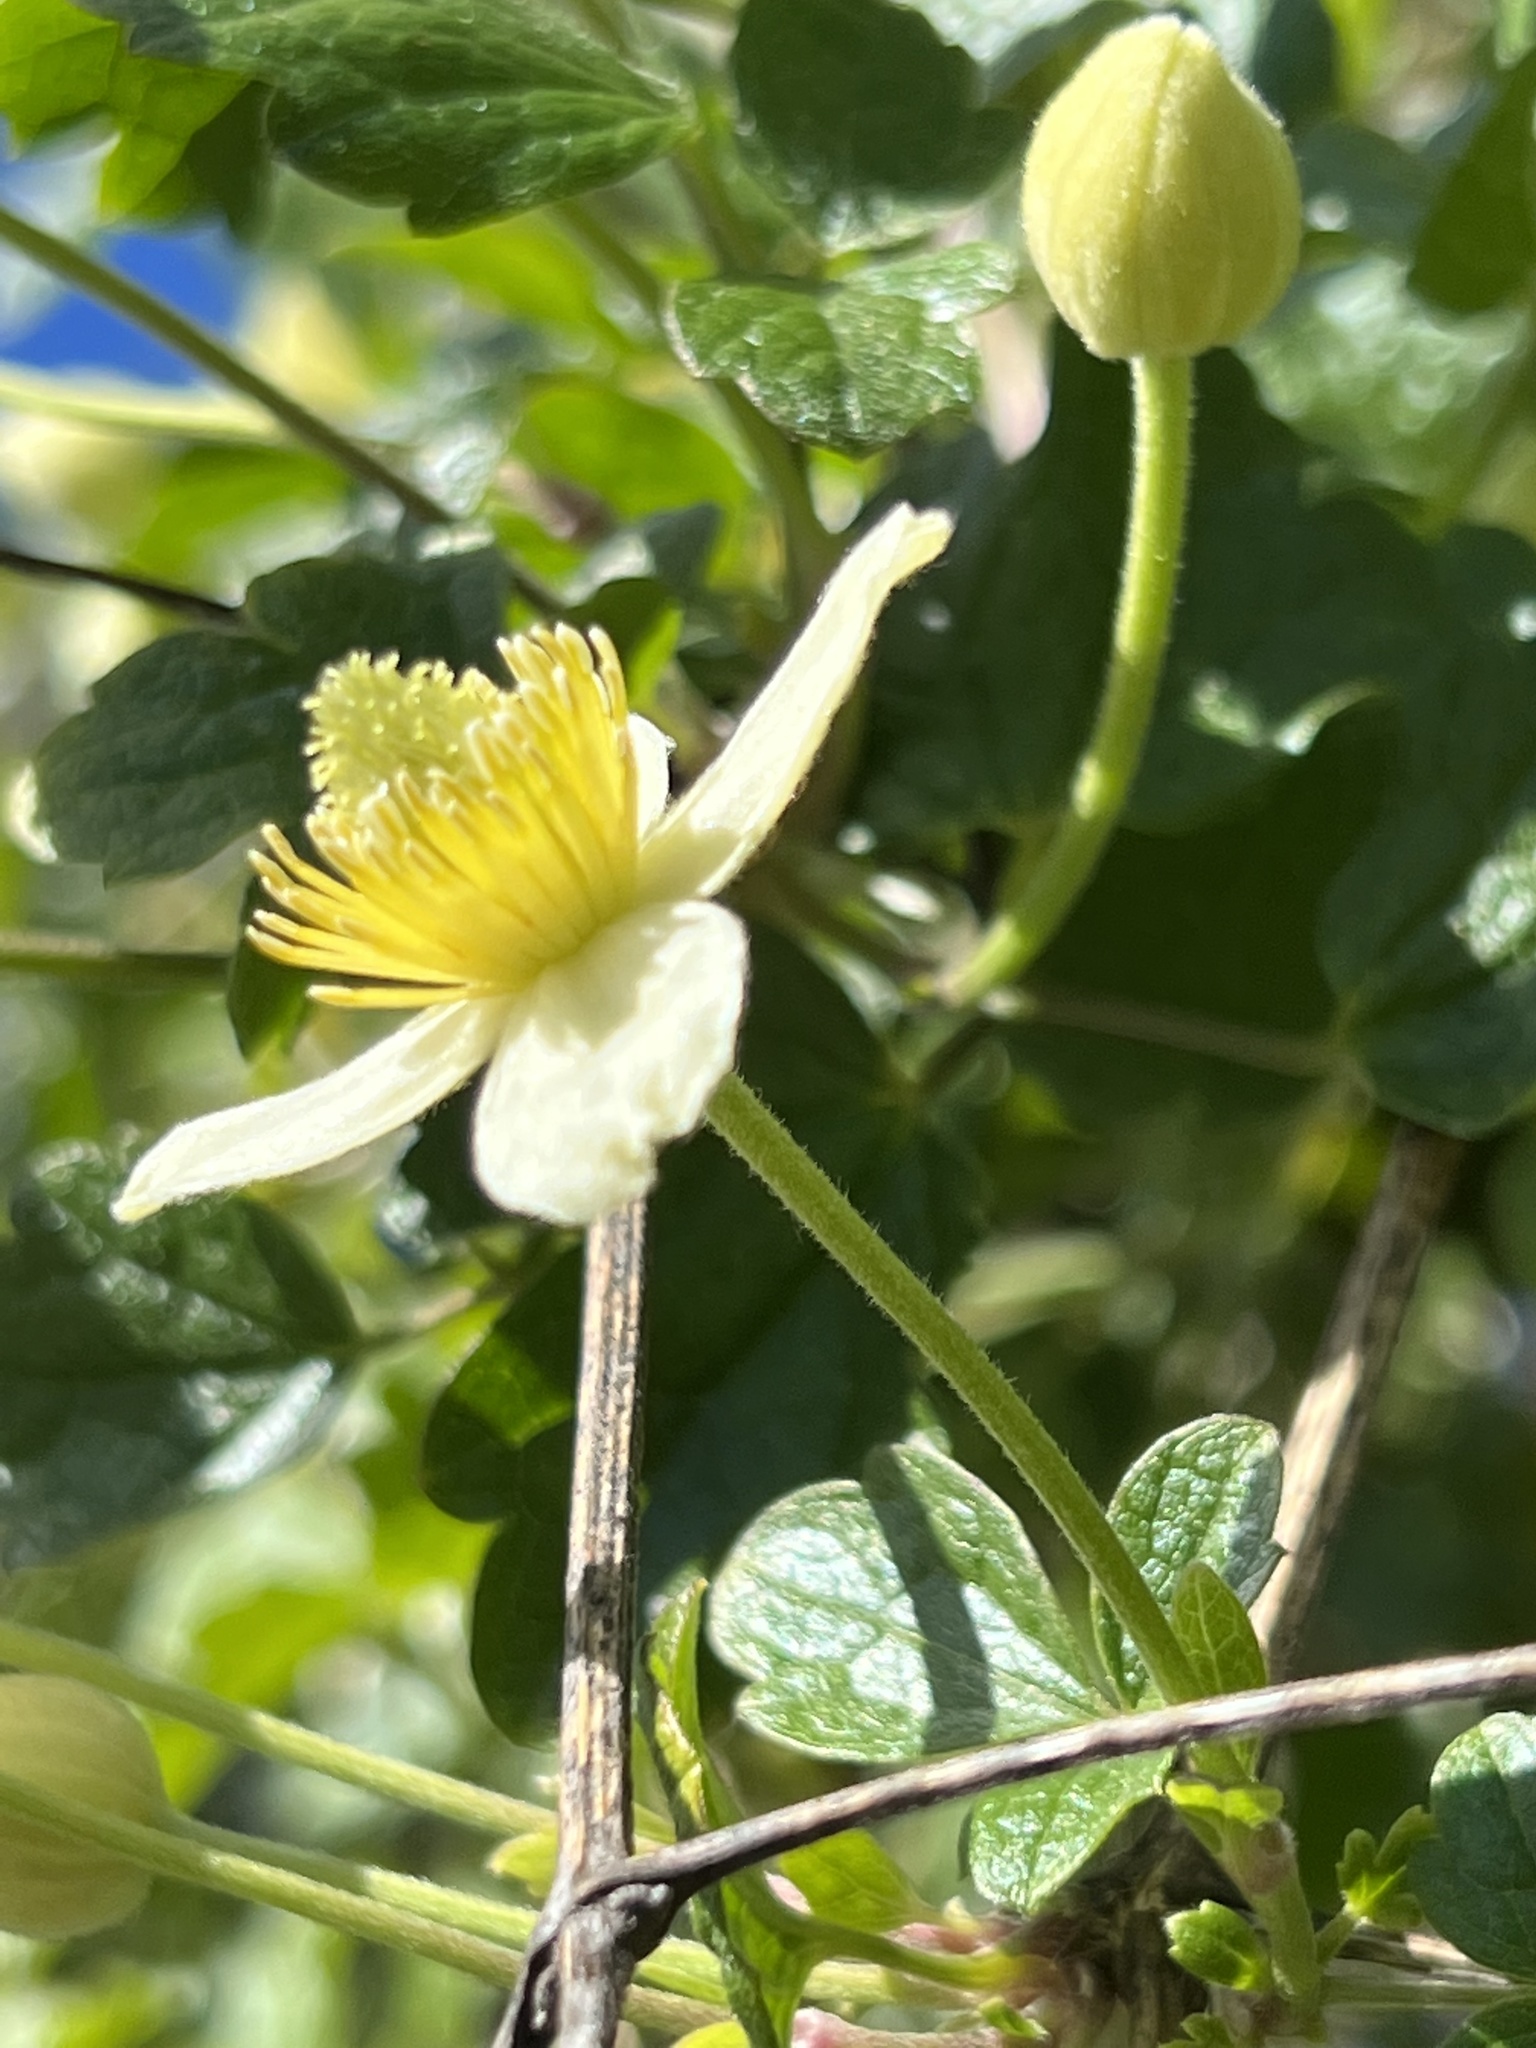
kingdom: Plantae
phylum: Tracheophyta
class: Magnoliopsida
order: Ranunculales
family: Ranunculaceae
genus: Clematis
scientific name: Clematis lasiantha
